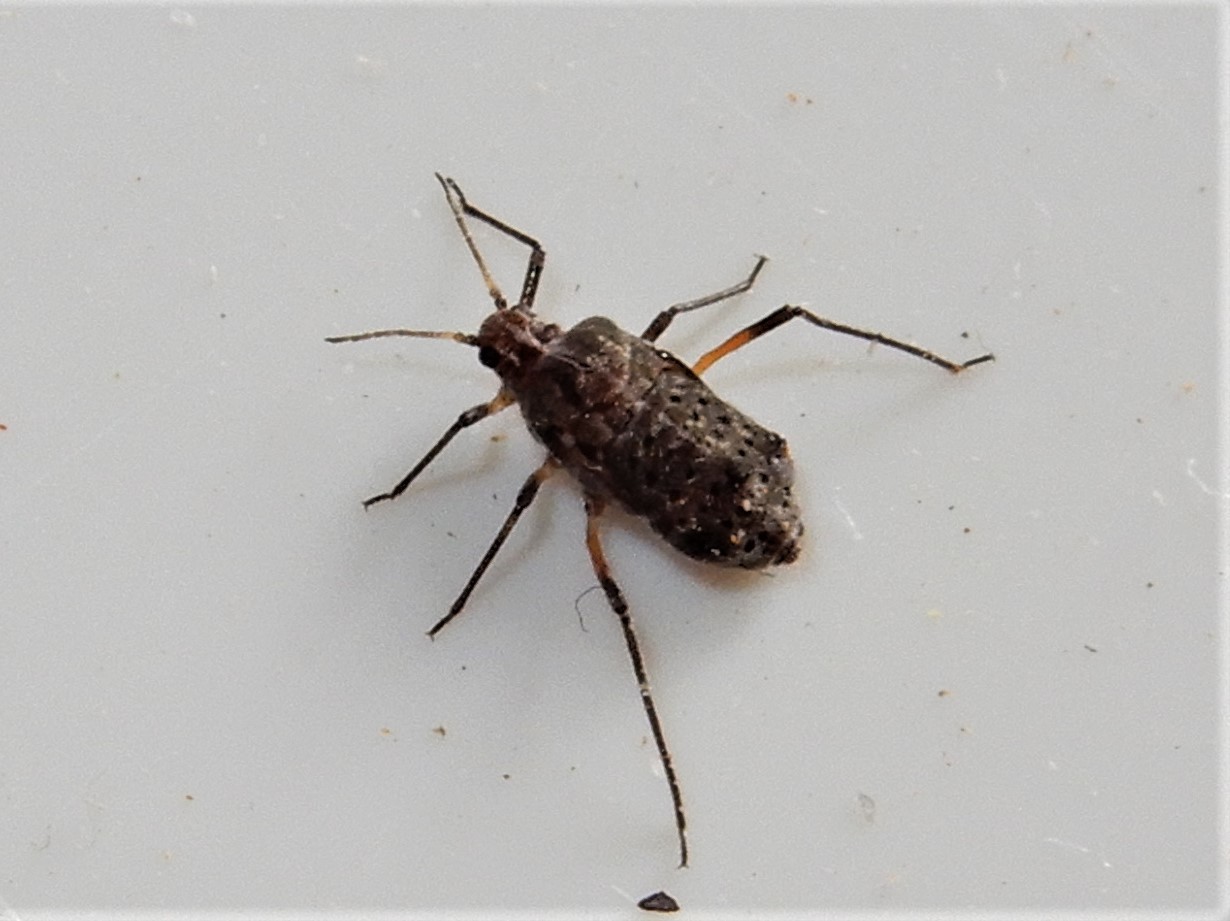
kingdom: Animalia
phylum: Arthropoda
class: Insecta
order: Hemiptera
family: Aphididae
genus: Tuberolachnus
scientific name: Tuberolachnus salignus
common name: Giant willow aphid
